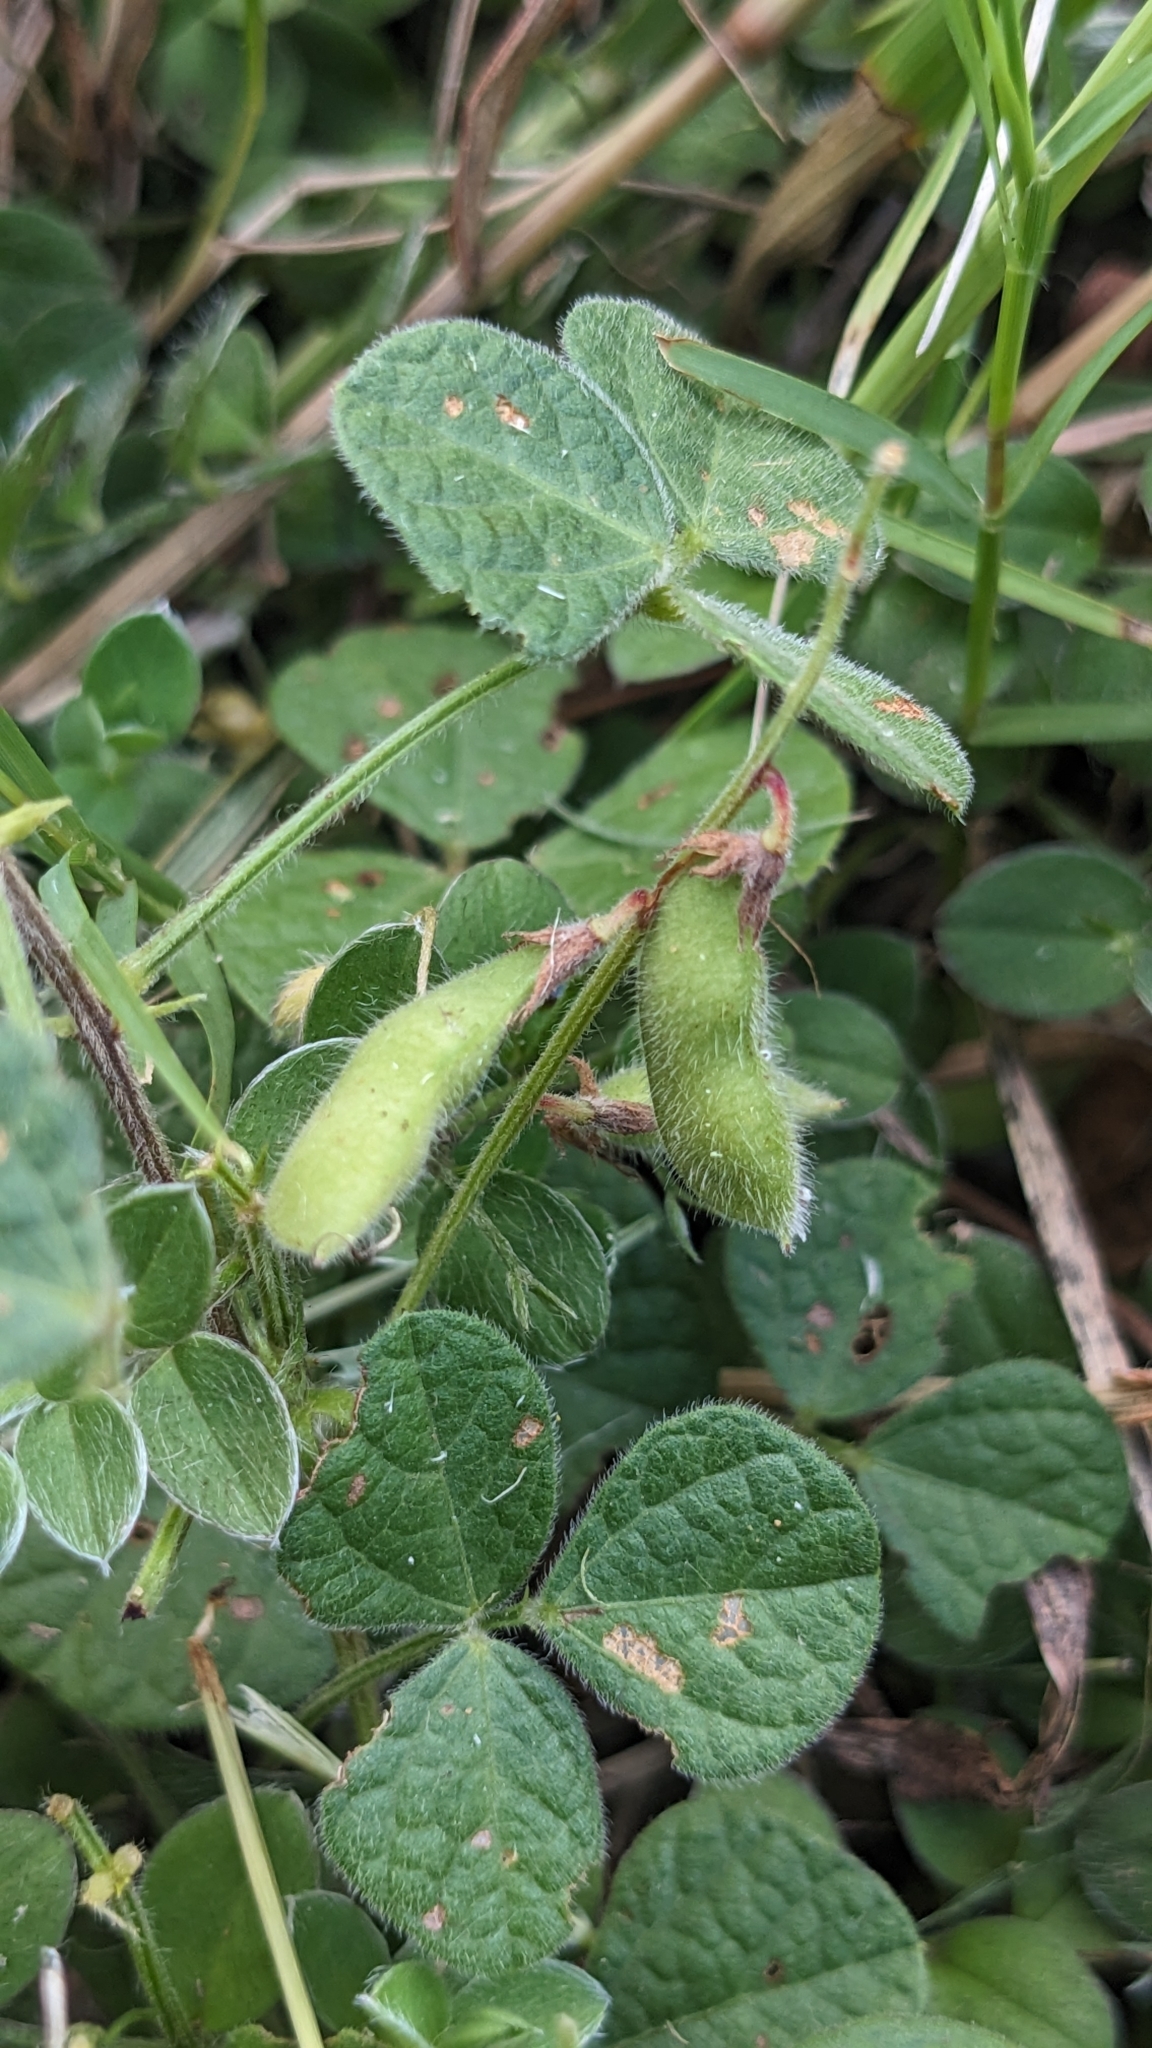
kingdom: Plantae
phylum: Tracheophyta
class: Magnoliopsida
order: Fabales
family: Fabaceae
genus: Rhynchosia
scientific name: Rhynchosia minima
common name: Least snoutbean
